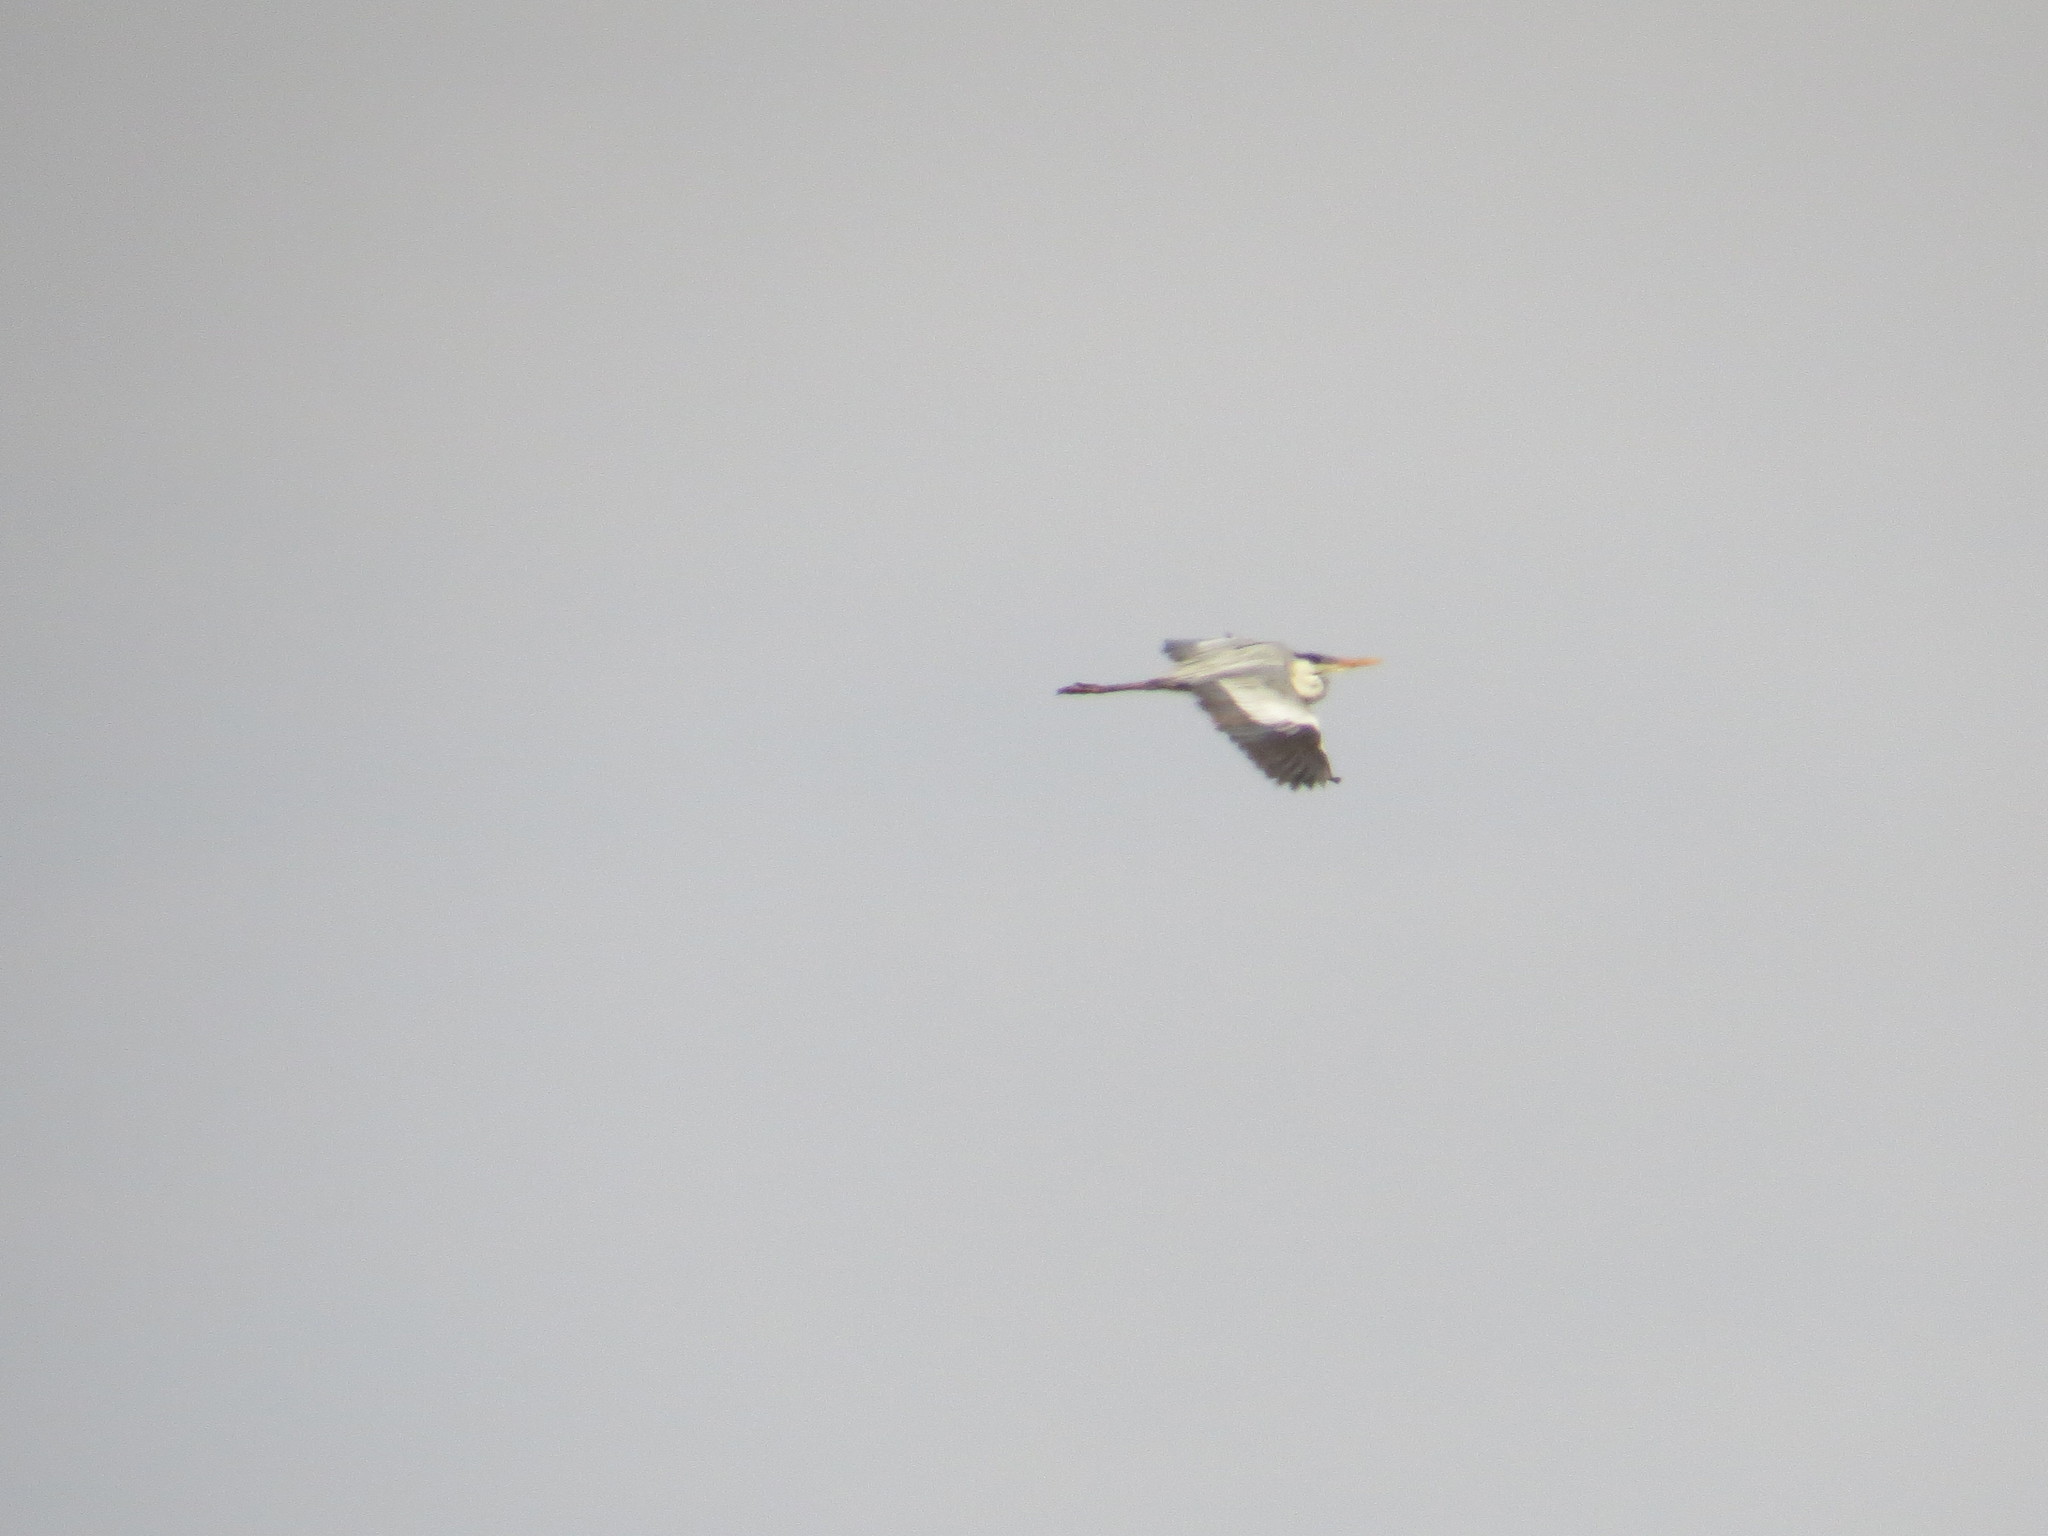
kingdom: Animalia
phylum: Chordata
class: Aves
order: Pelecaniformes
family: Ardeidae
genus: Ardea
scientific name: Ardea cocoi
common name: Cocoi heron
